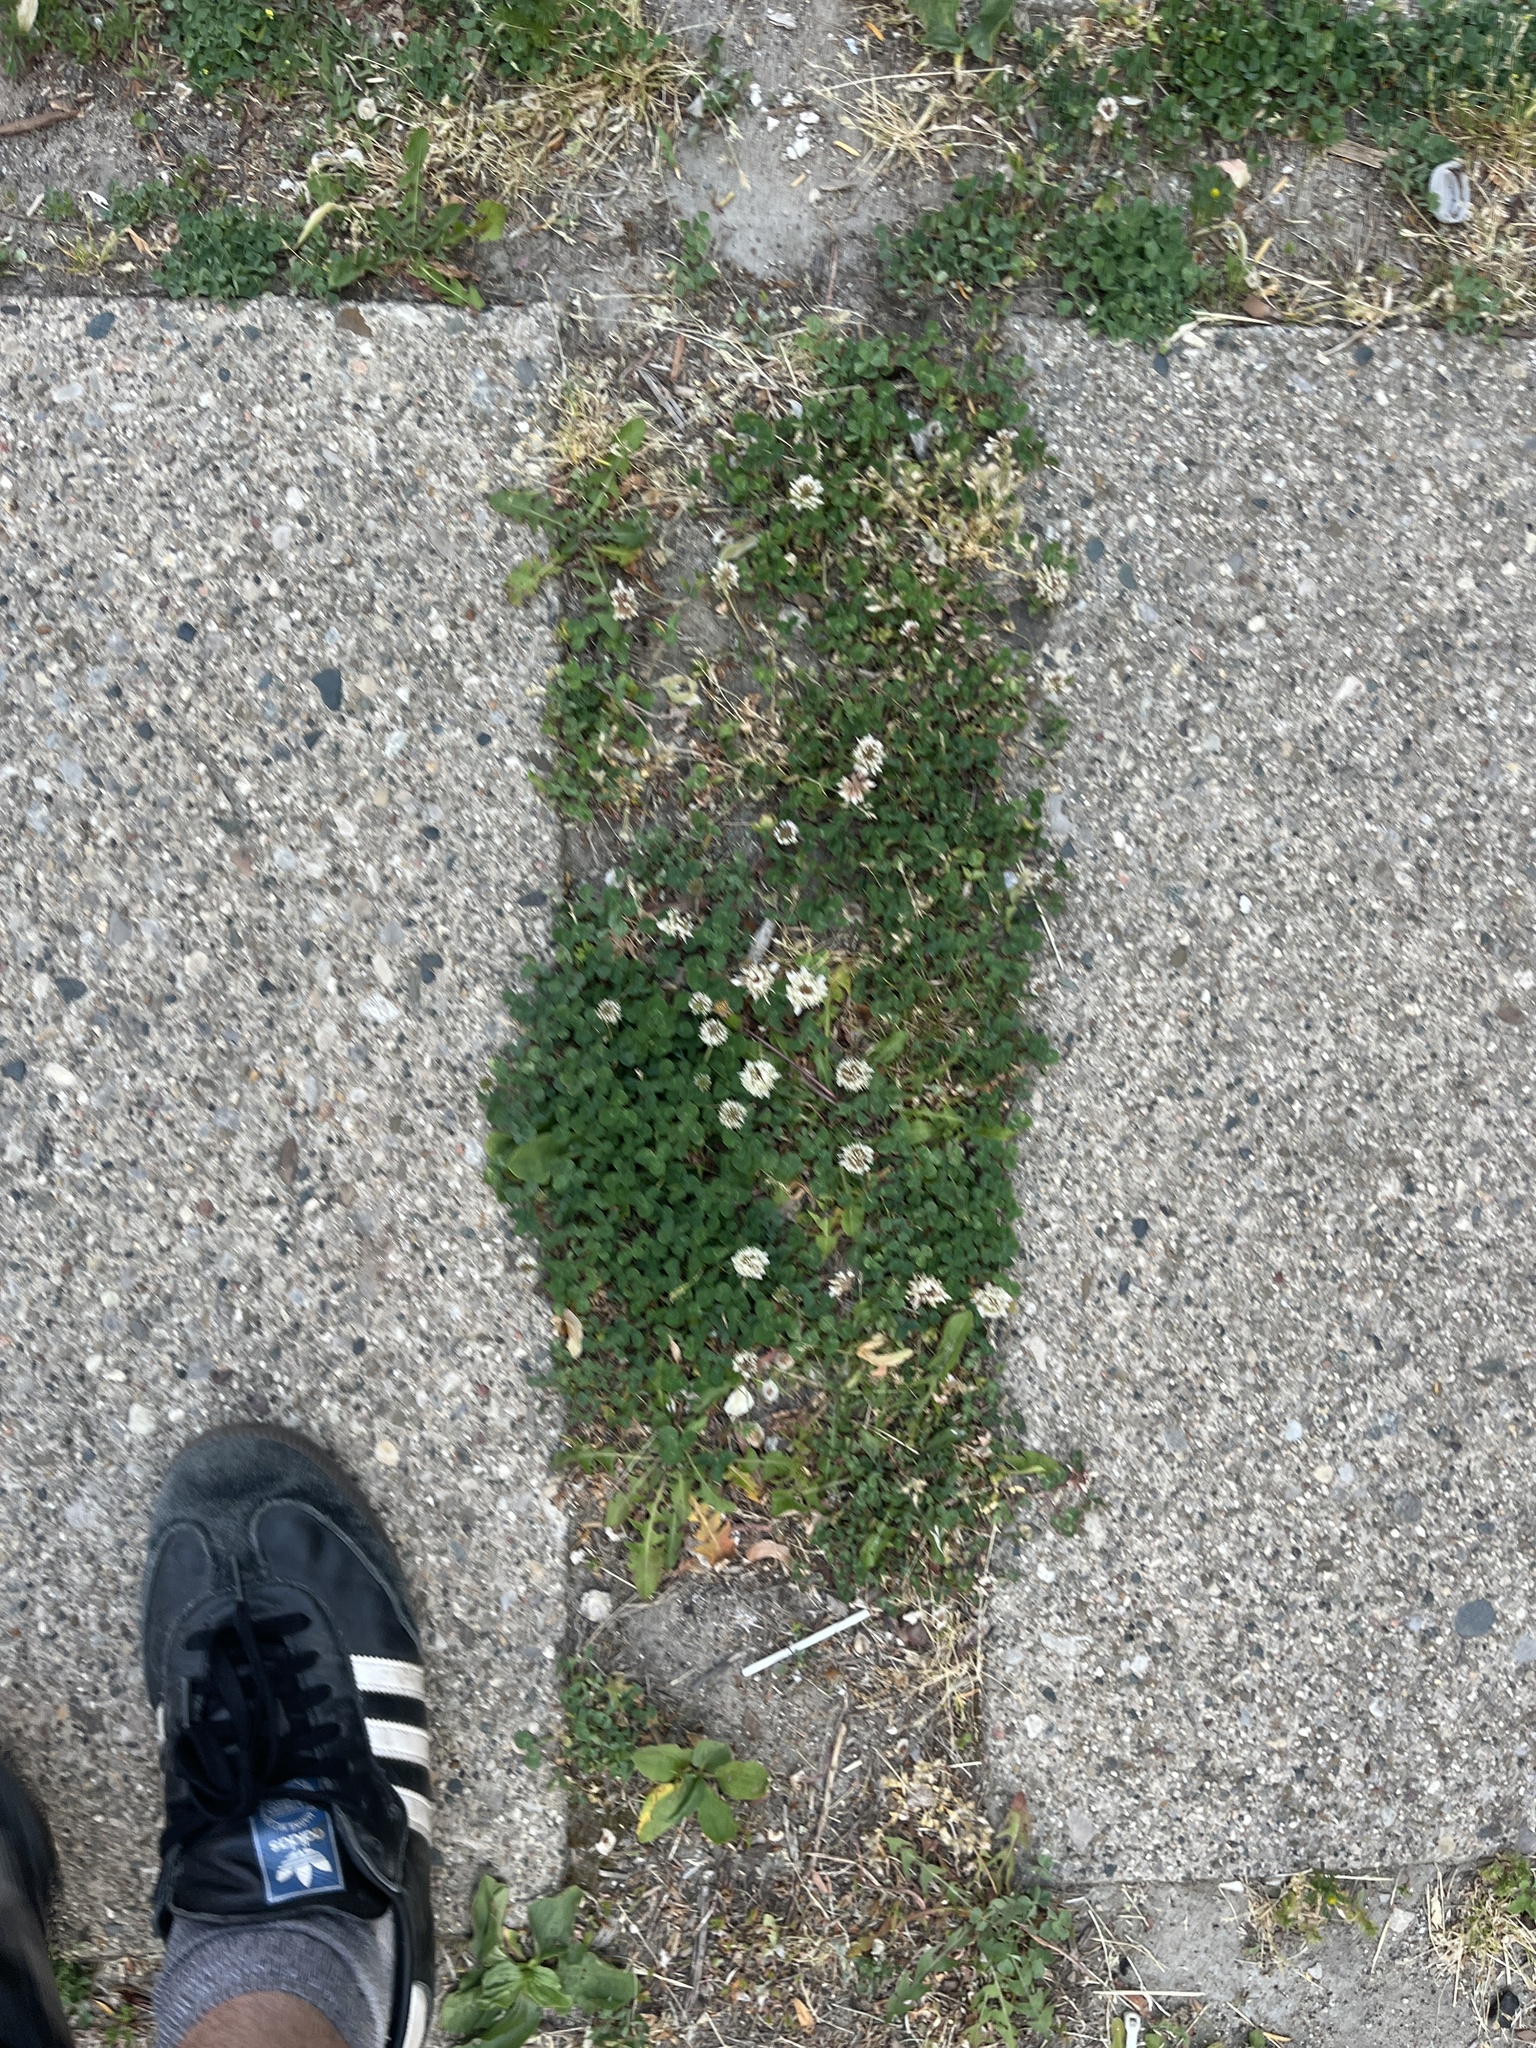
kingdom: Plantae
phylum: Tracheophyta
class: Magnoliopsida
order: Fabales
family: Fabaceae
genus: Trifolium
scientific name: Trifolium repens
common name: White clover
